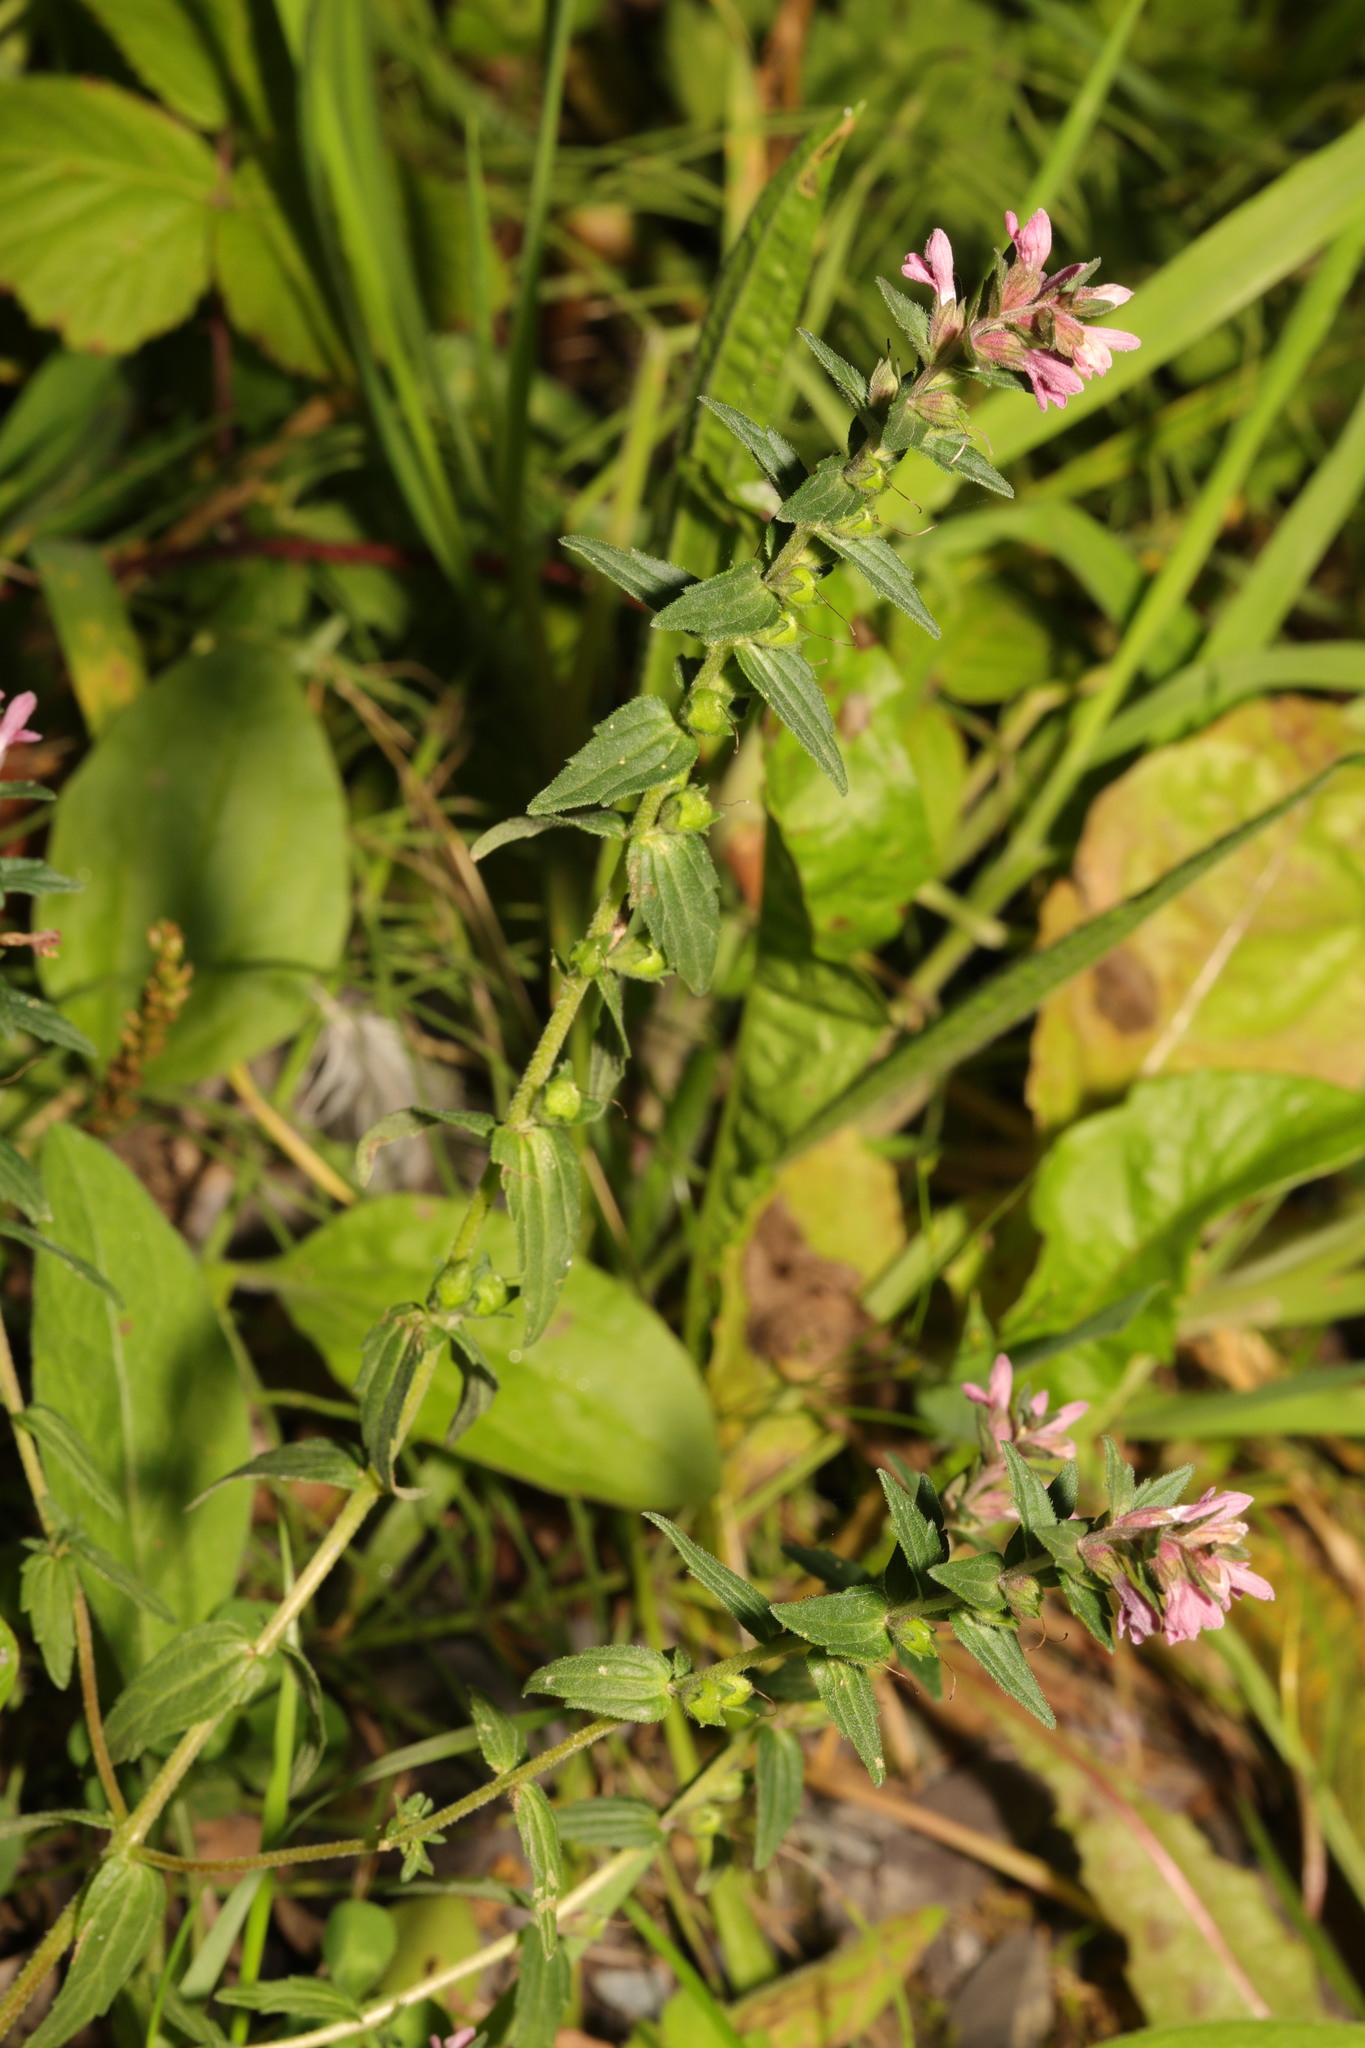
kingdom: Plantae
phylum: Tracheophyta
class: Magnoliopsida
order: Lamiales
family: Orobanchaceae
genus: Odontites
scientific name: Odontites vulgaris
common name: Broomrape
